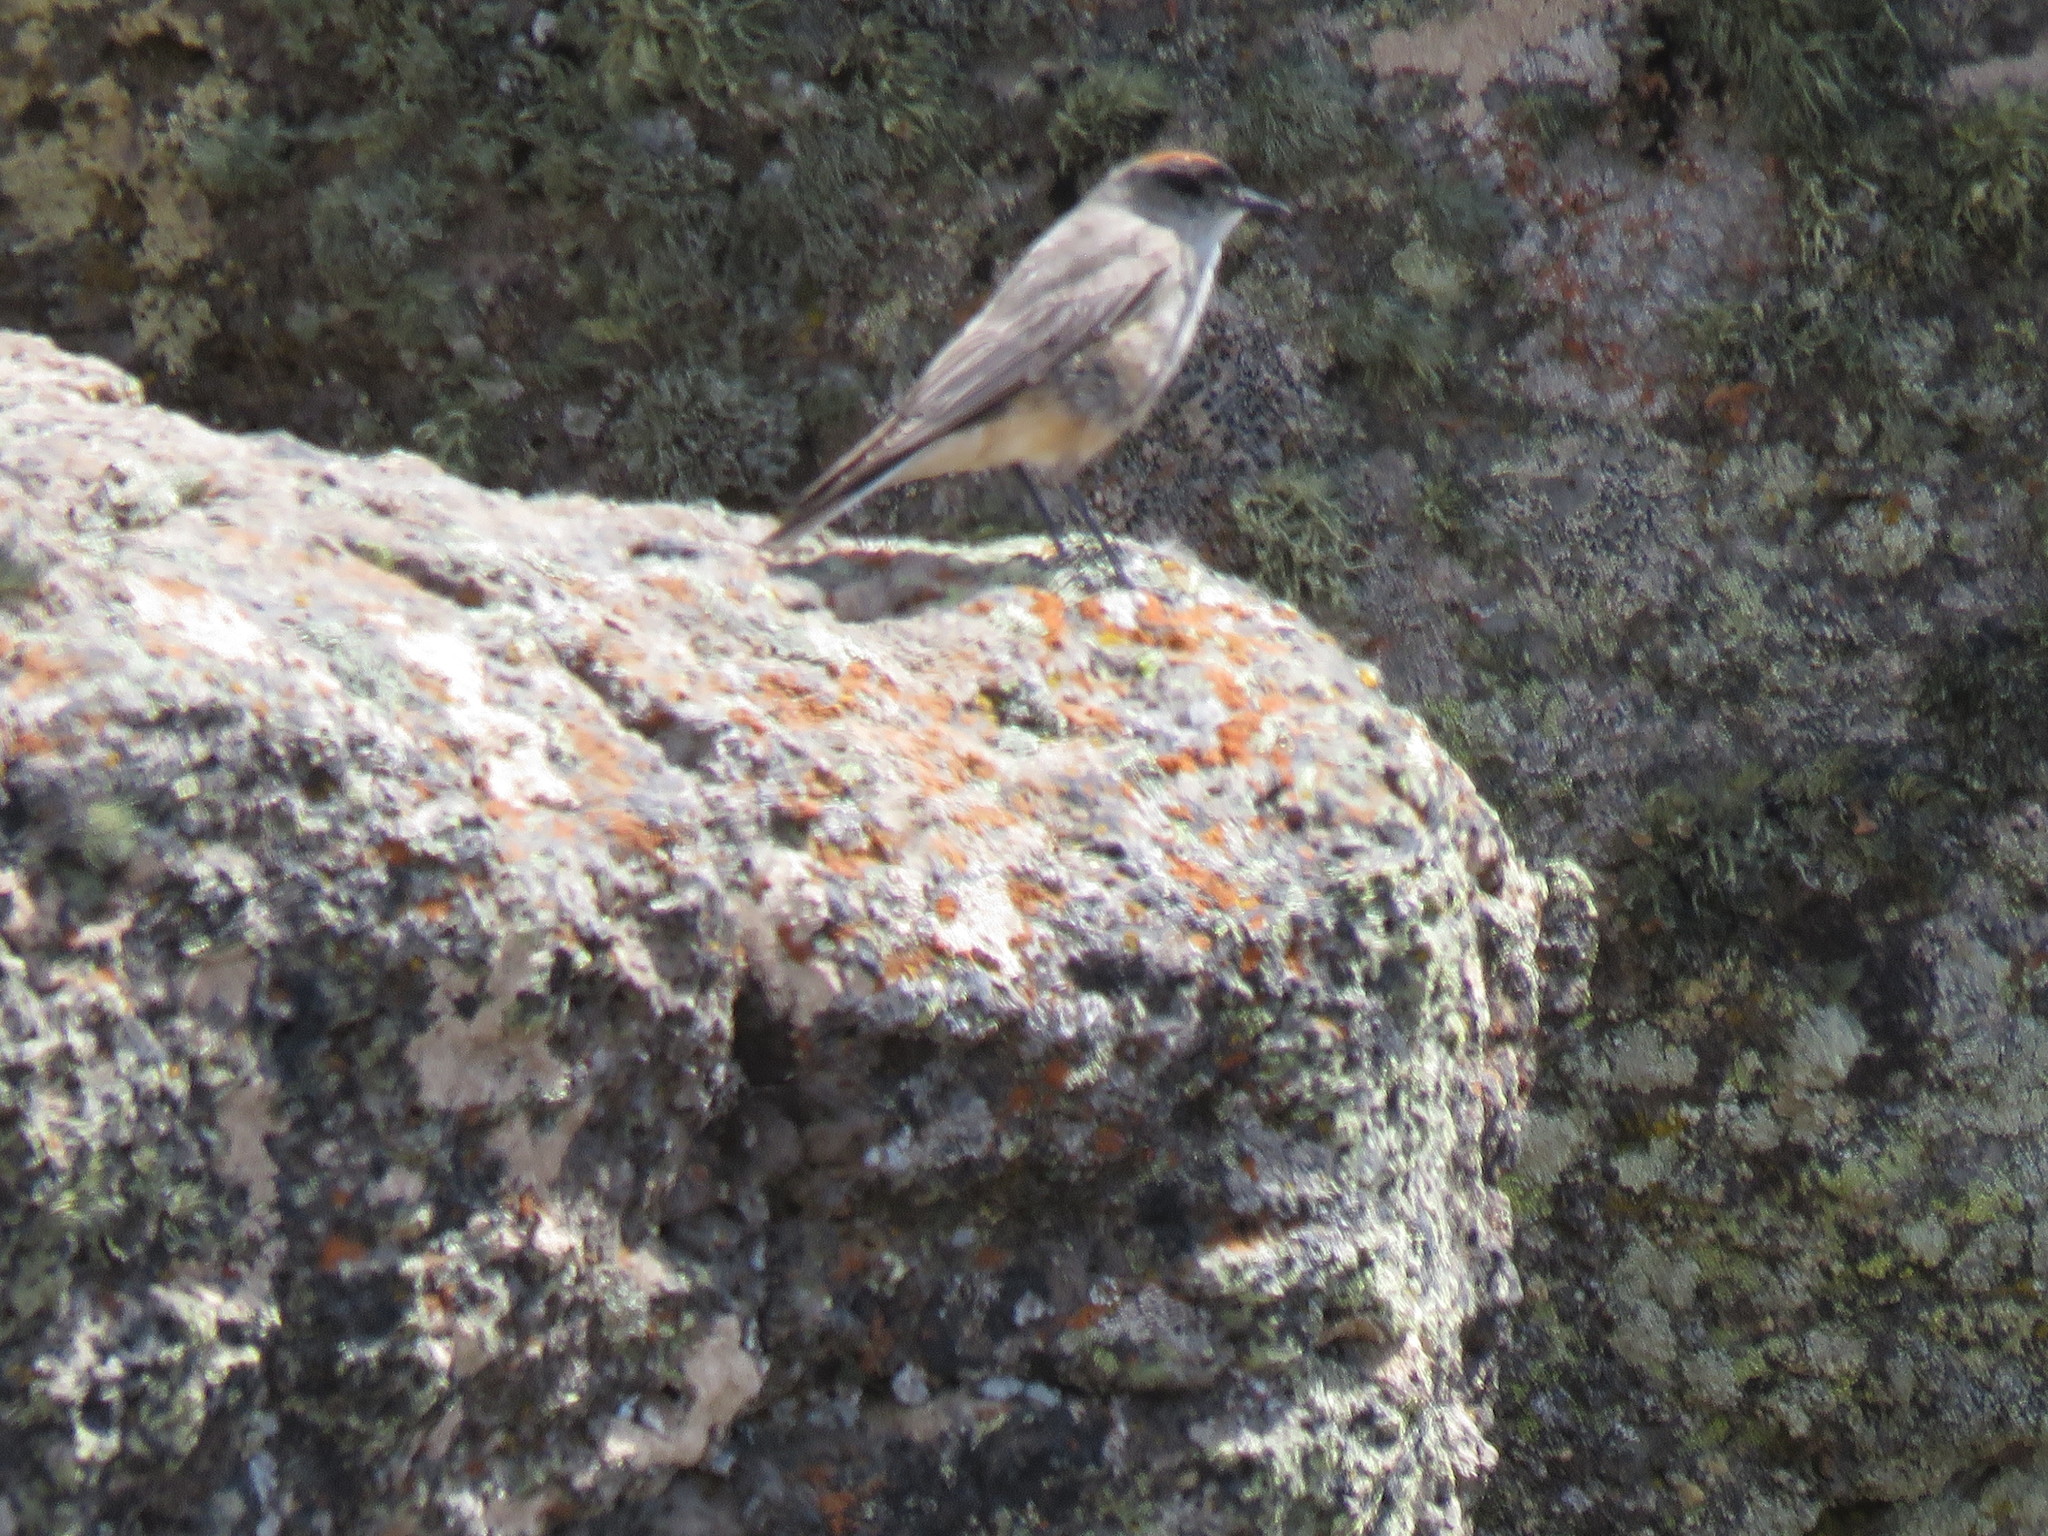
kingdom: Animalia
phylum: Chordata
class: Aves
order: Passeriformes
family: Tyrannidae
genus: Muscisaxicola
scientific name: Muscisaxicola capistratus
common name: Cinnamon-bellied ground tyrant
